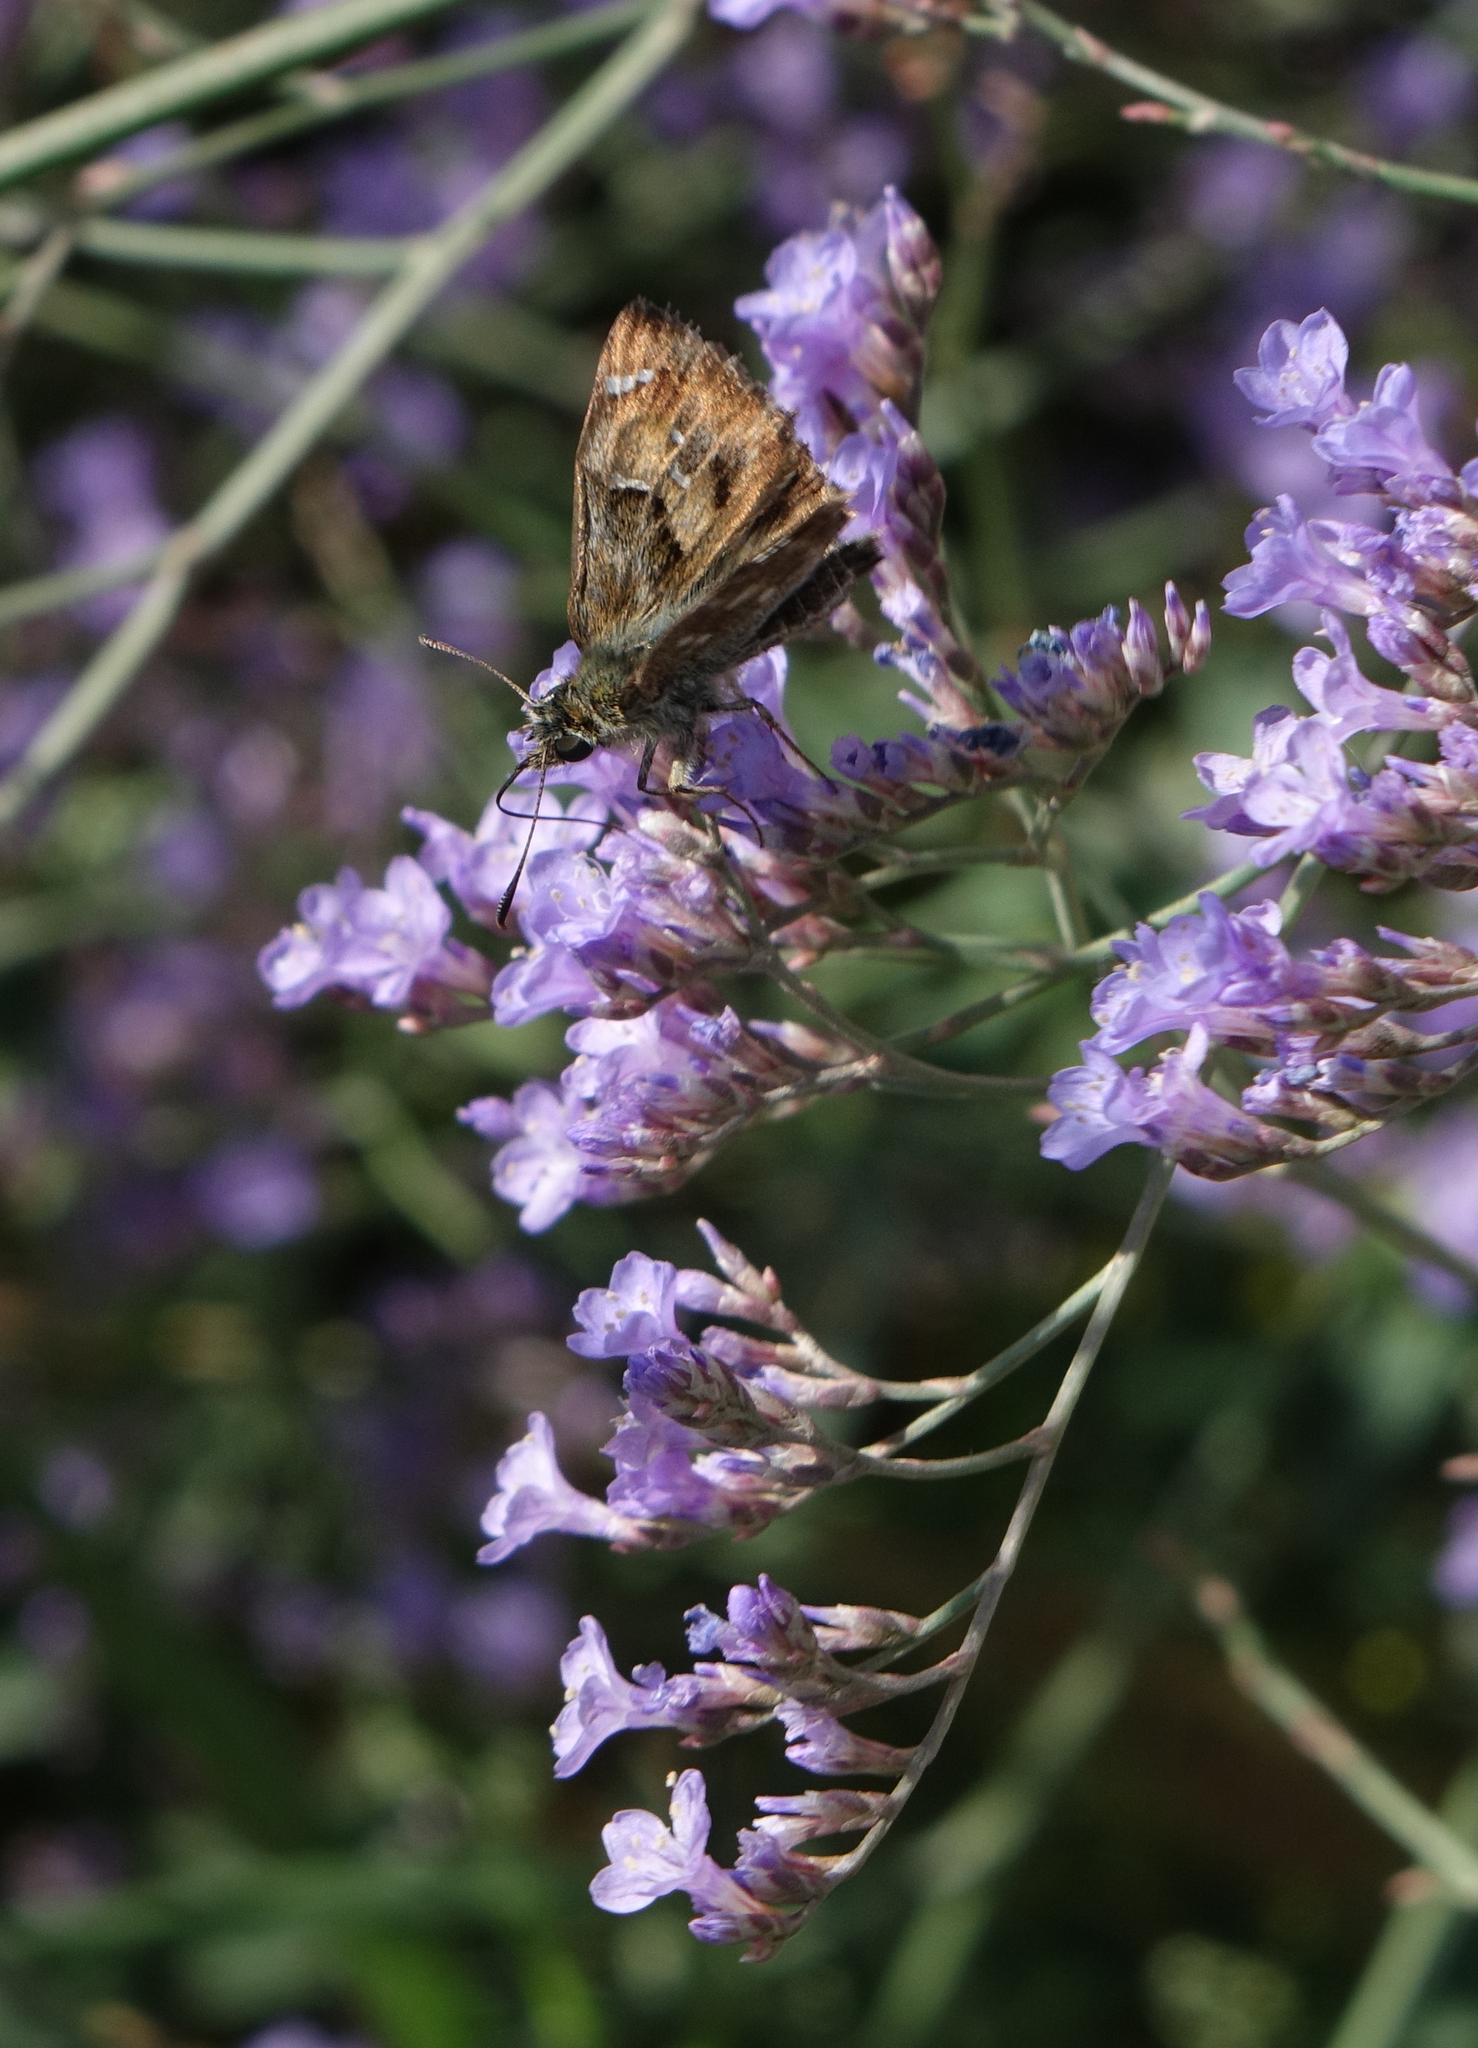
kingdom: Animalia
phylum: Arthropoda
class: Insecta
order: Lepidoptera
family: Hesperiidae
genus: Carcharodus
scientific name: Carcharodus alceae
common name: Mallow skipper
